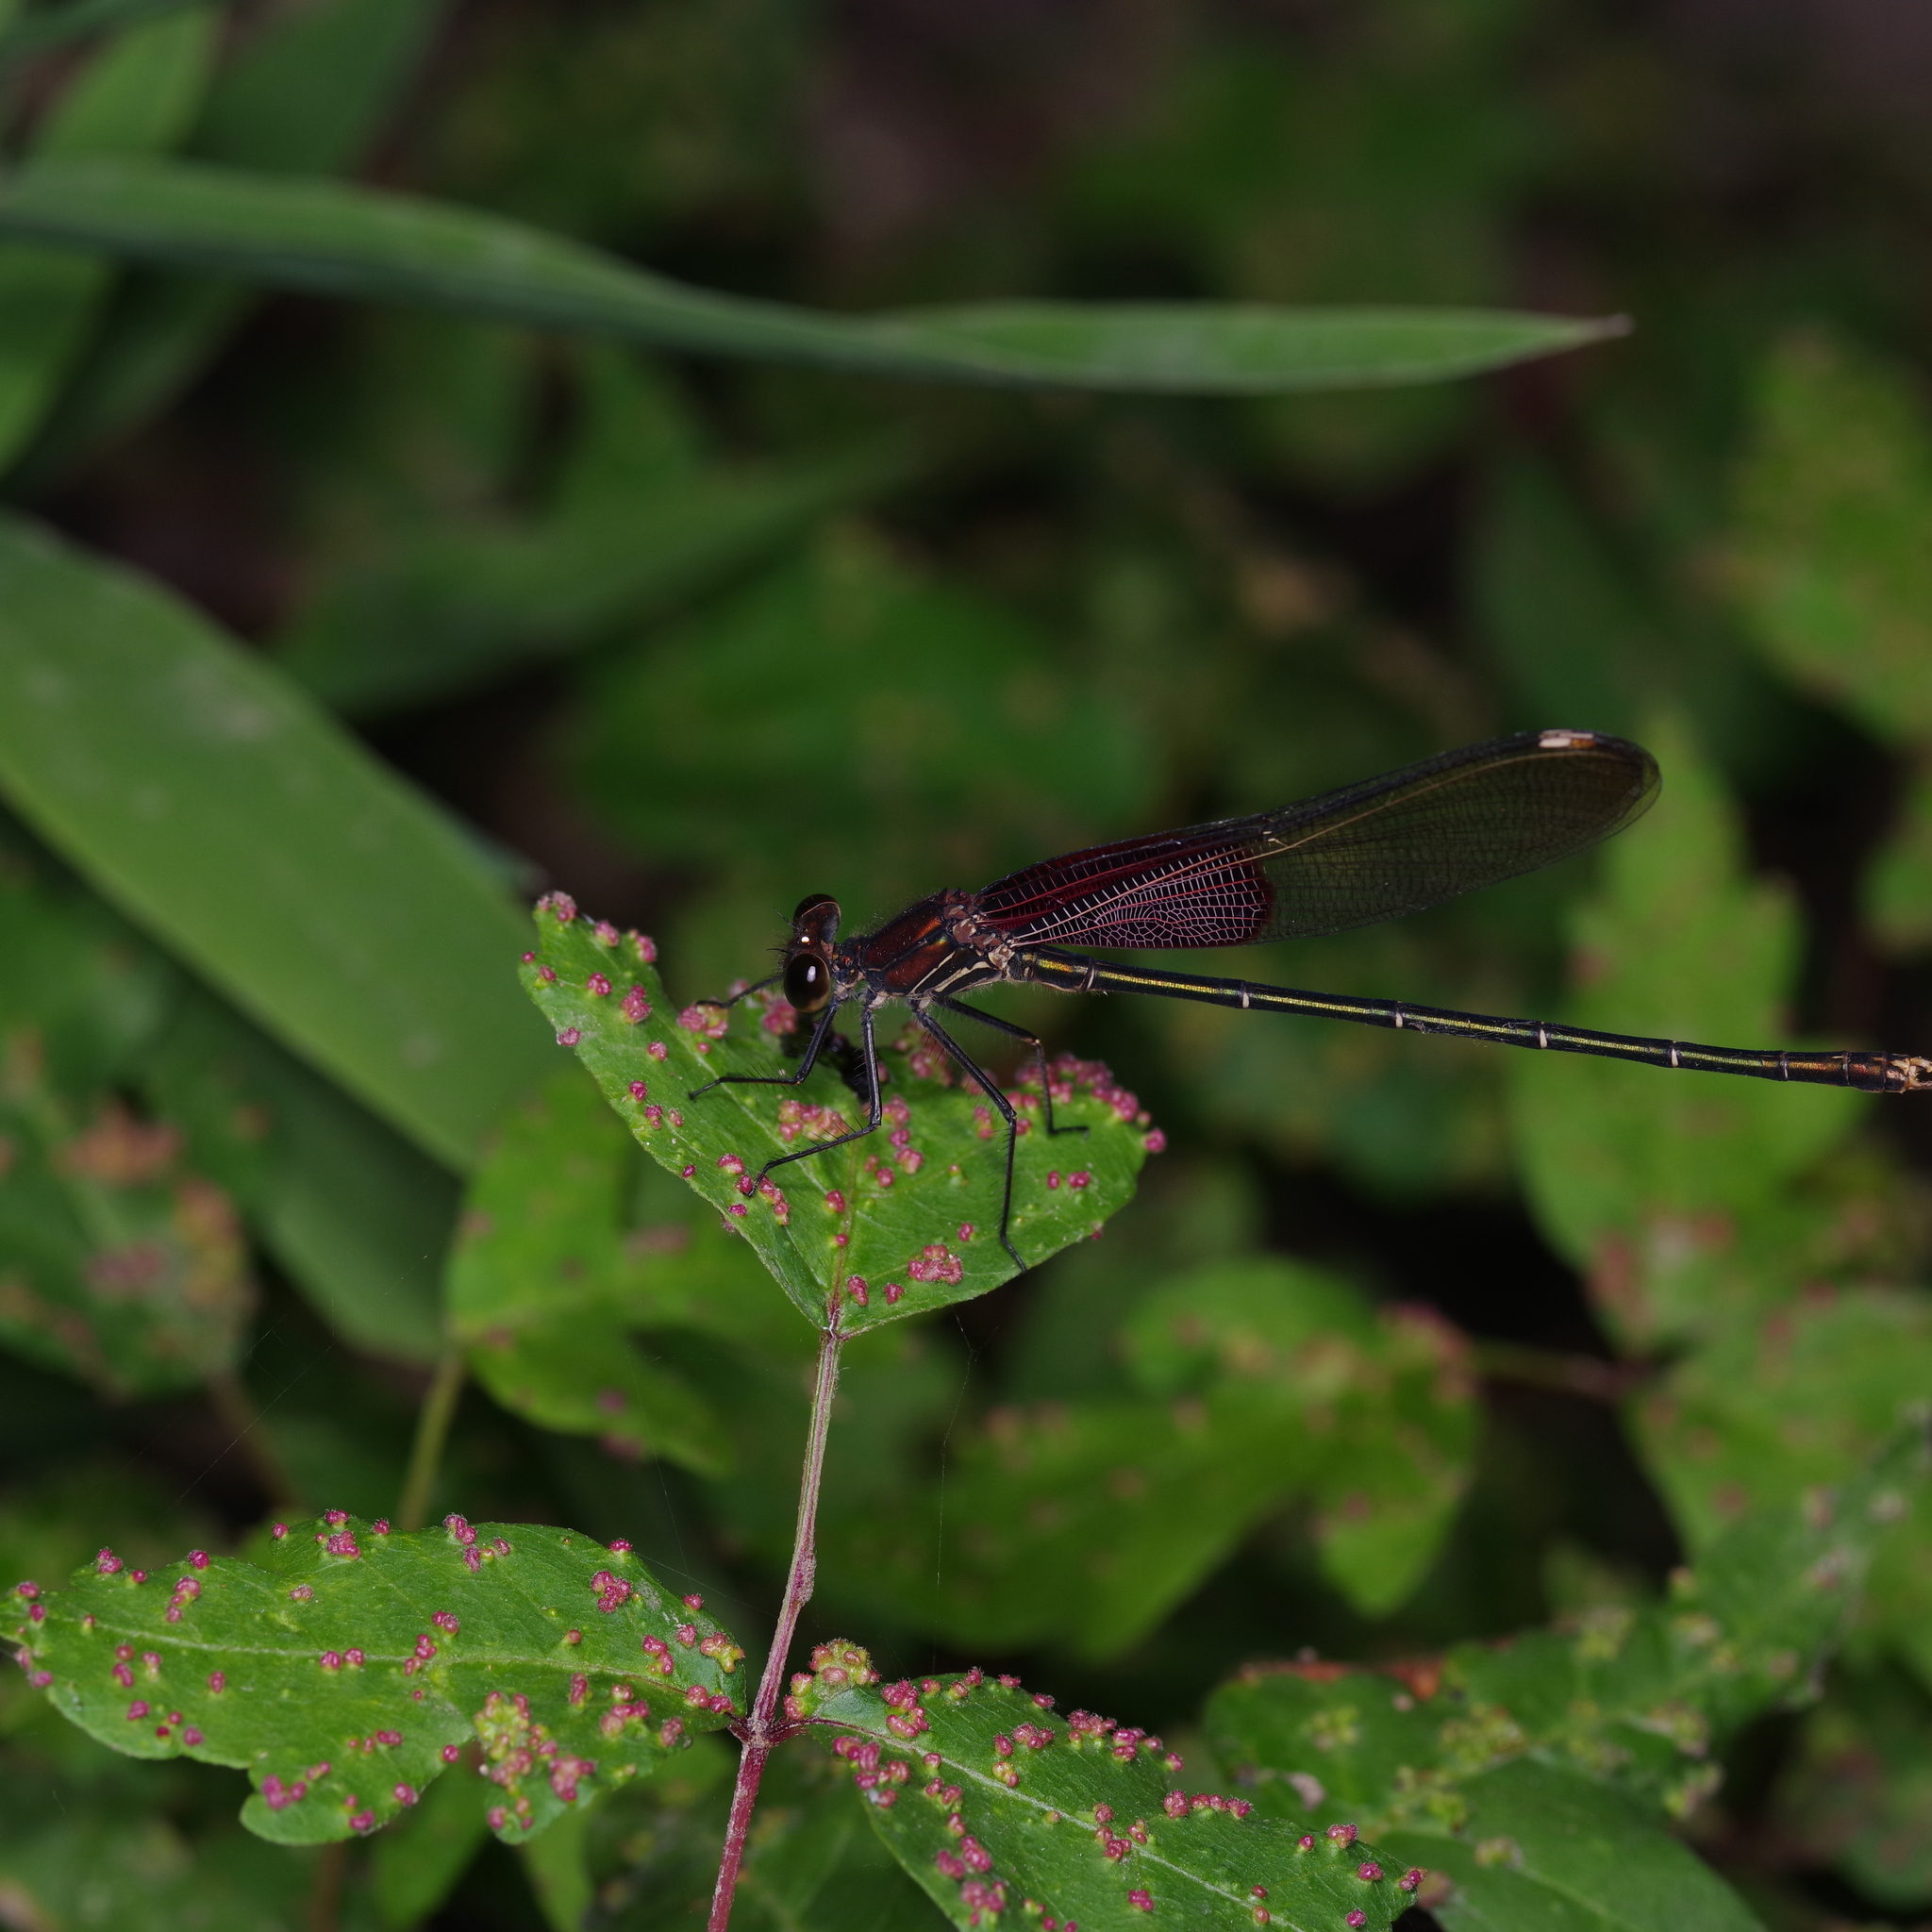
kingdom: Animalia
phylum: Arthropoda
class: Insecta
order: Odonata
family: Calopterygidae
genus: Hetaerina
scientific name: Hetaerina americana
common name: American rubyspot
